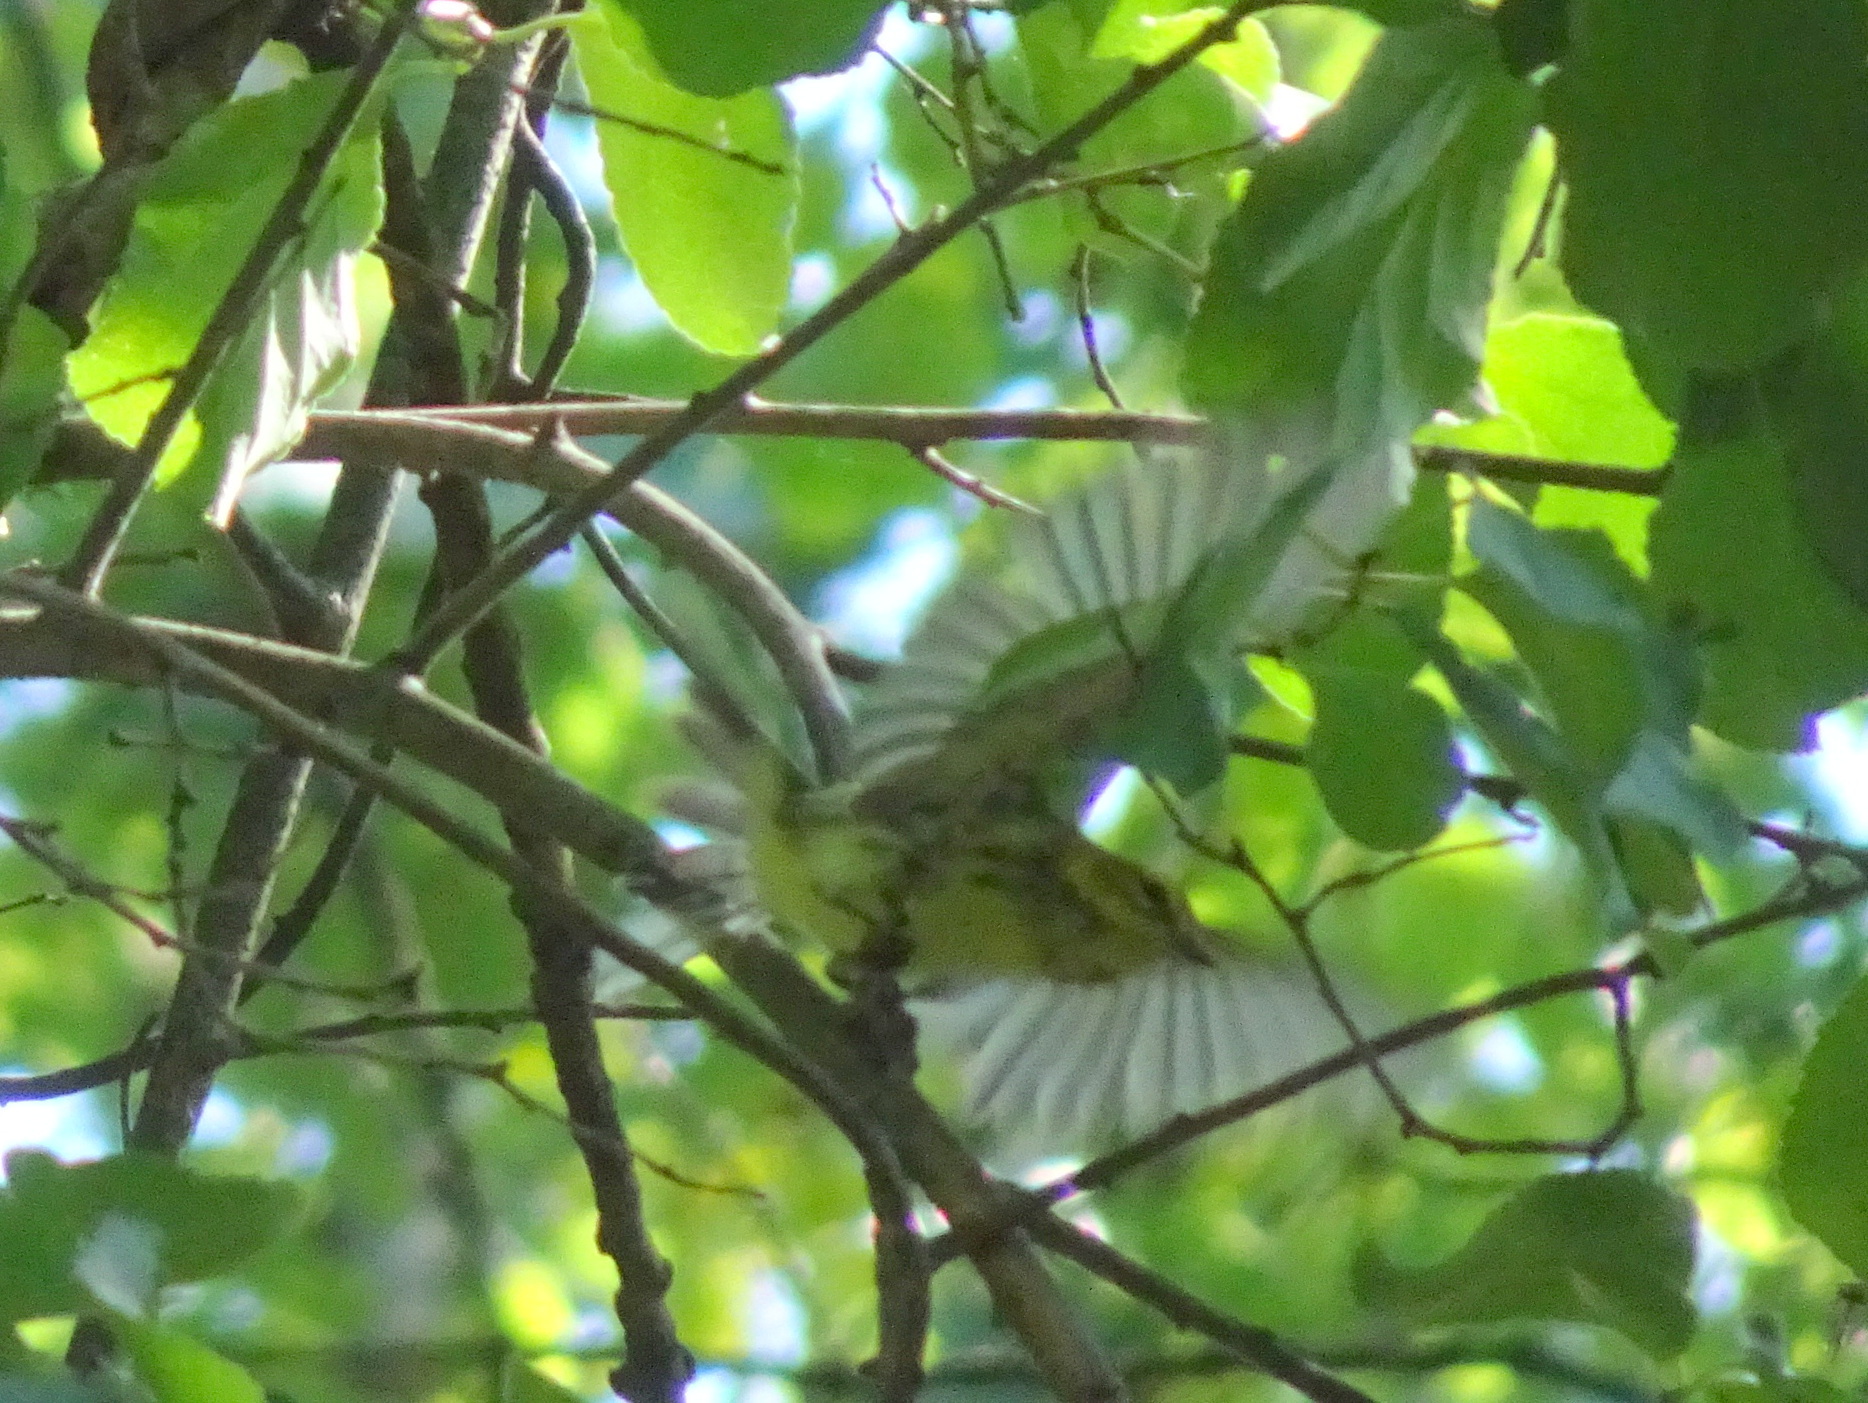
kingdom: Animalia
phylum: Chordata
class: Aves
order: Passeriformes
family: Parulidae
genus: Setophaga
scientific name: Setophaga virens
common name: Black-throated green warbler
